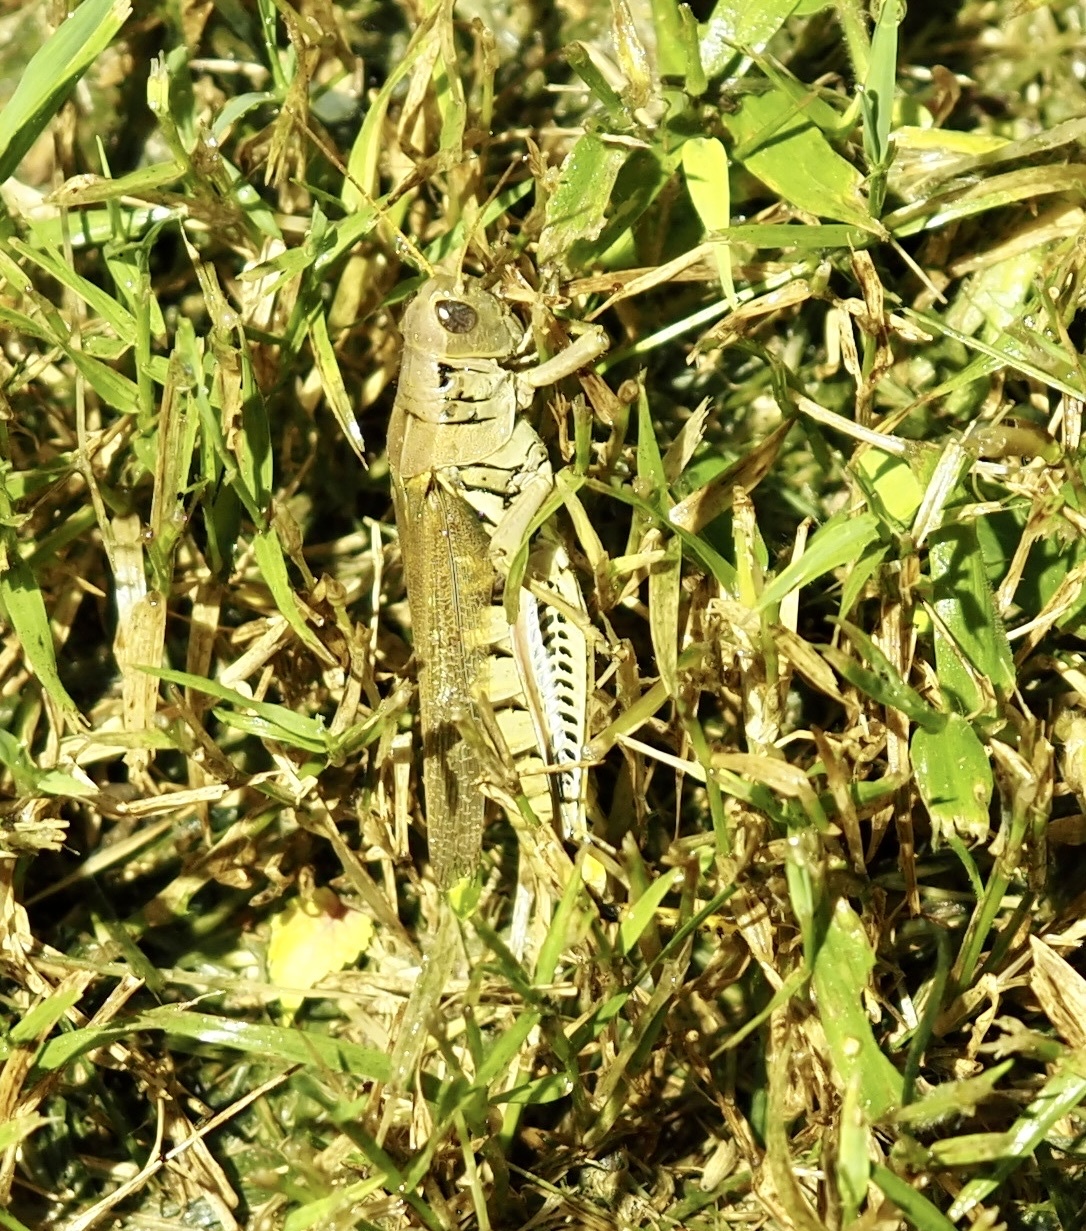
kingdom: Animalia
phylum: Arthropoda
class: Insecta
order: Orthoptera
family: Acrididae
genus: Melanoplus
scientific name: Melanoplus differentialis
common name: Differential grasshopper
